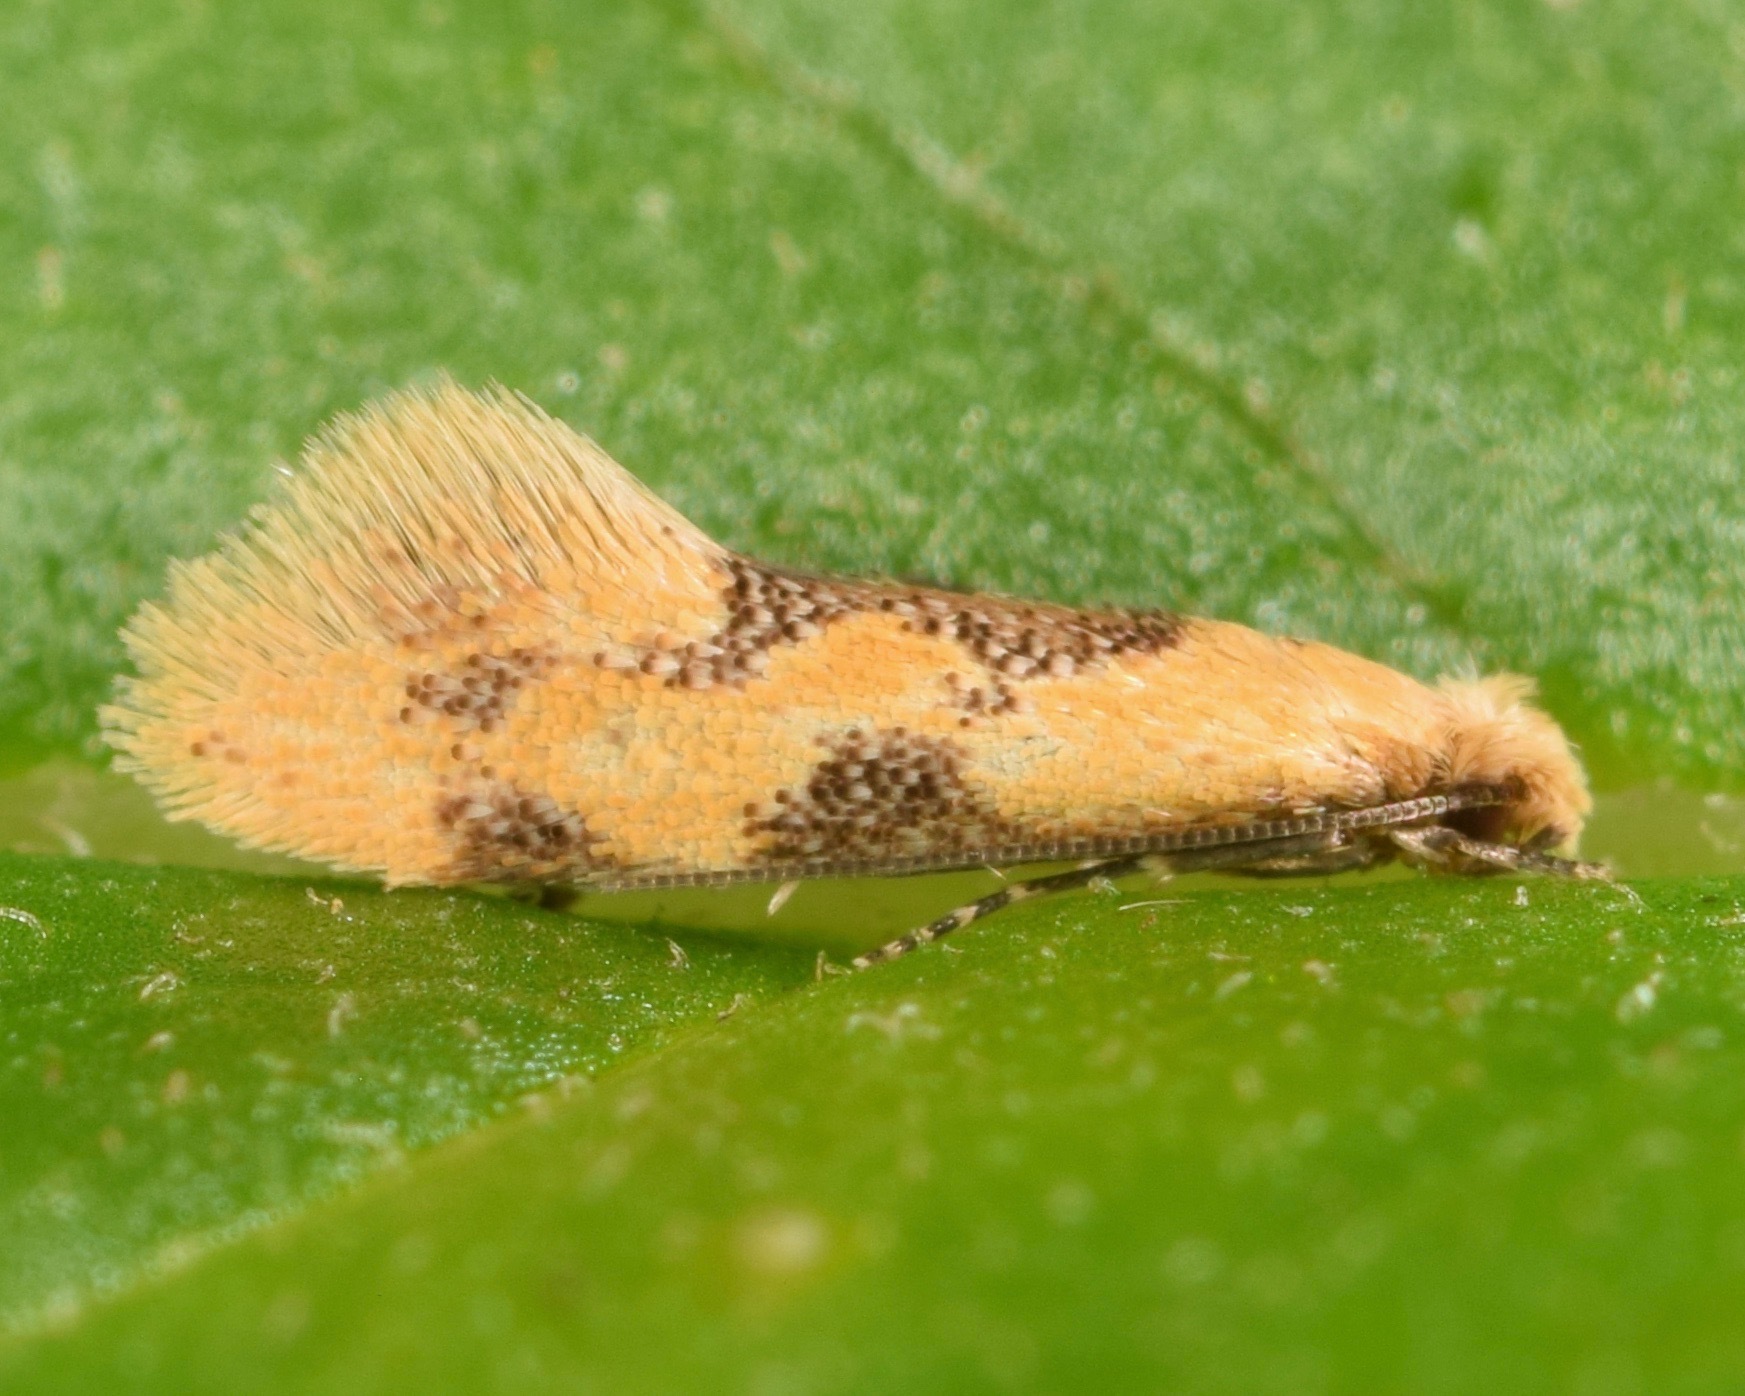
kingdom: Animalia
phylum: Arthropoda
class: Insecta
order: Lepidoptera
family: Meessiidae
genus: Hybroma
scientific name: Hybroma servulella
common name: Yellow wave moth
